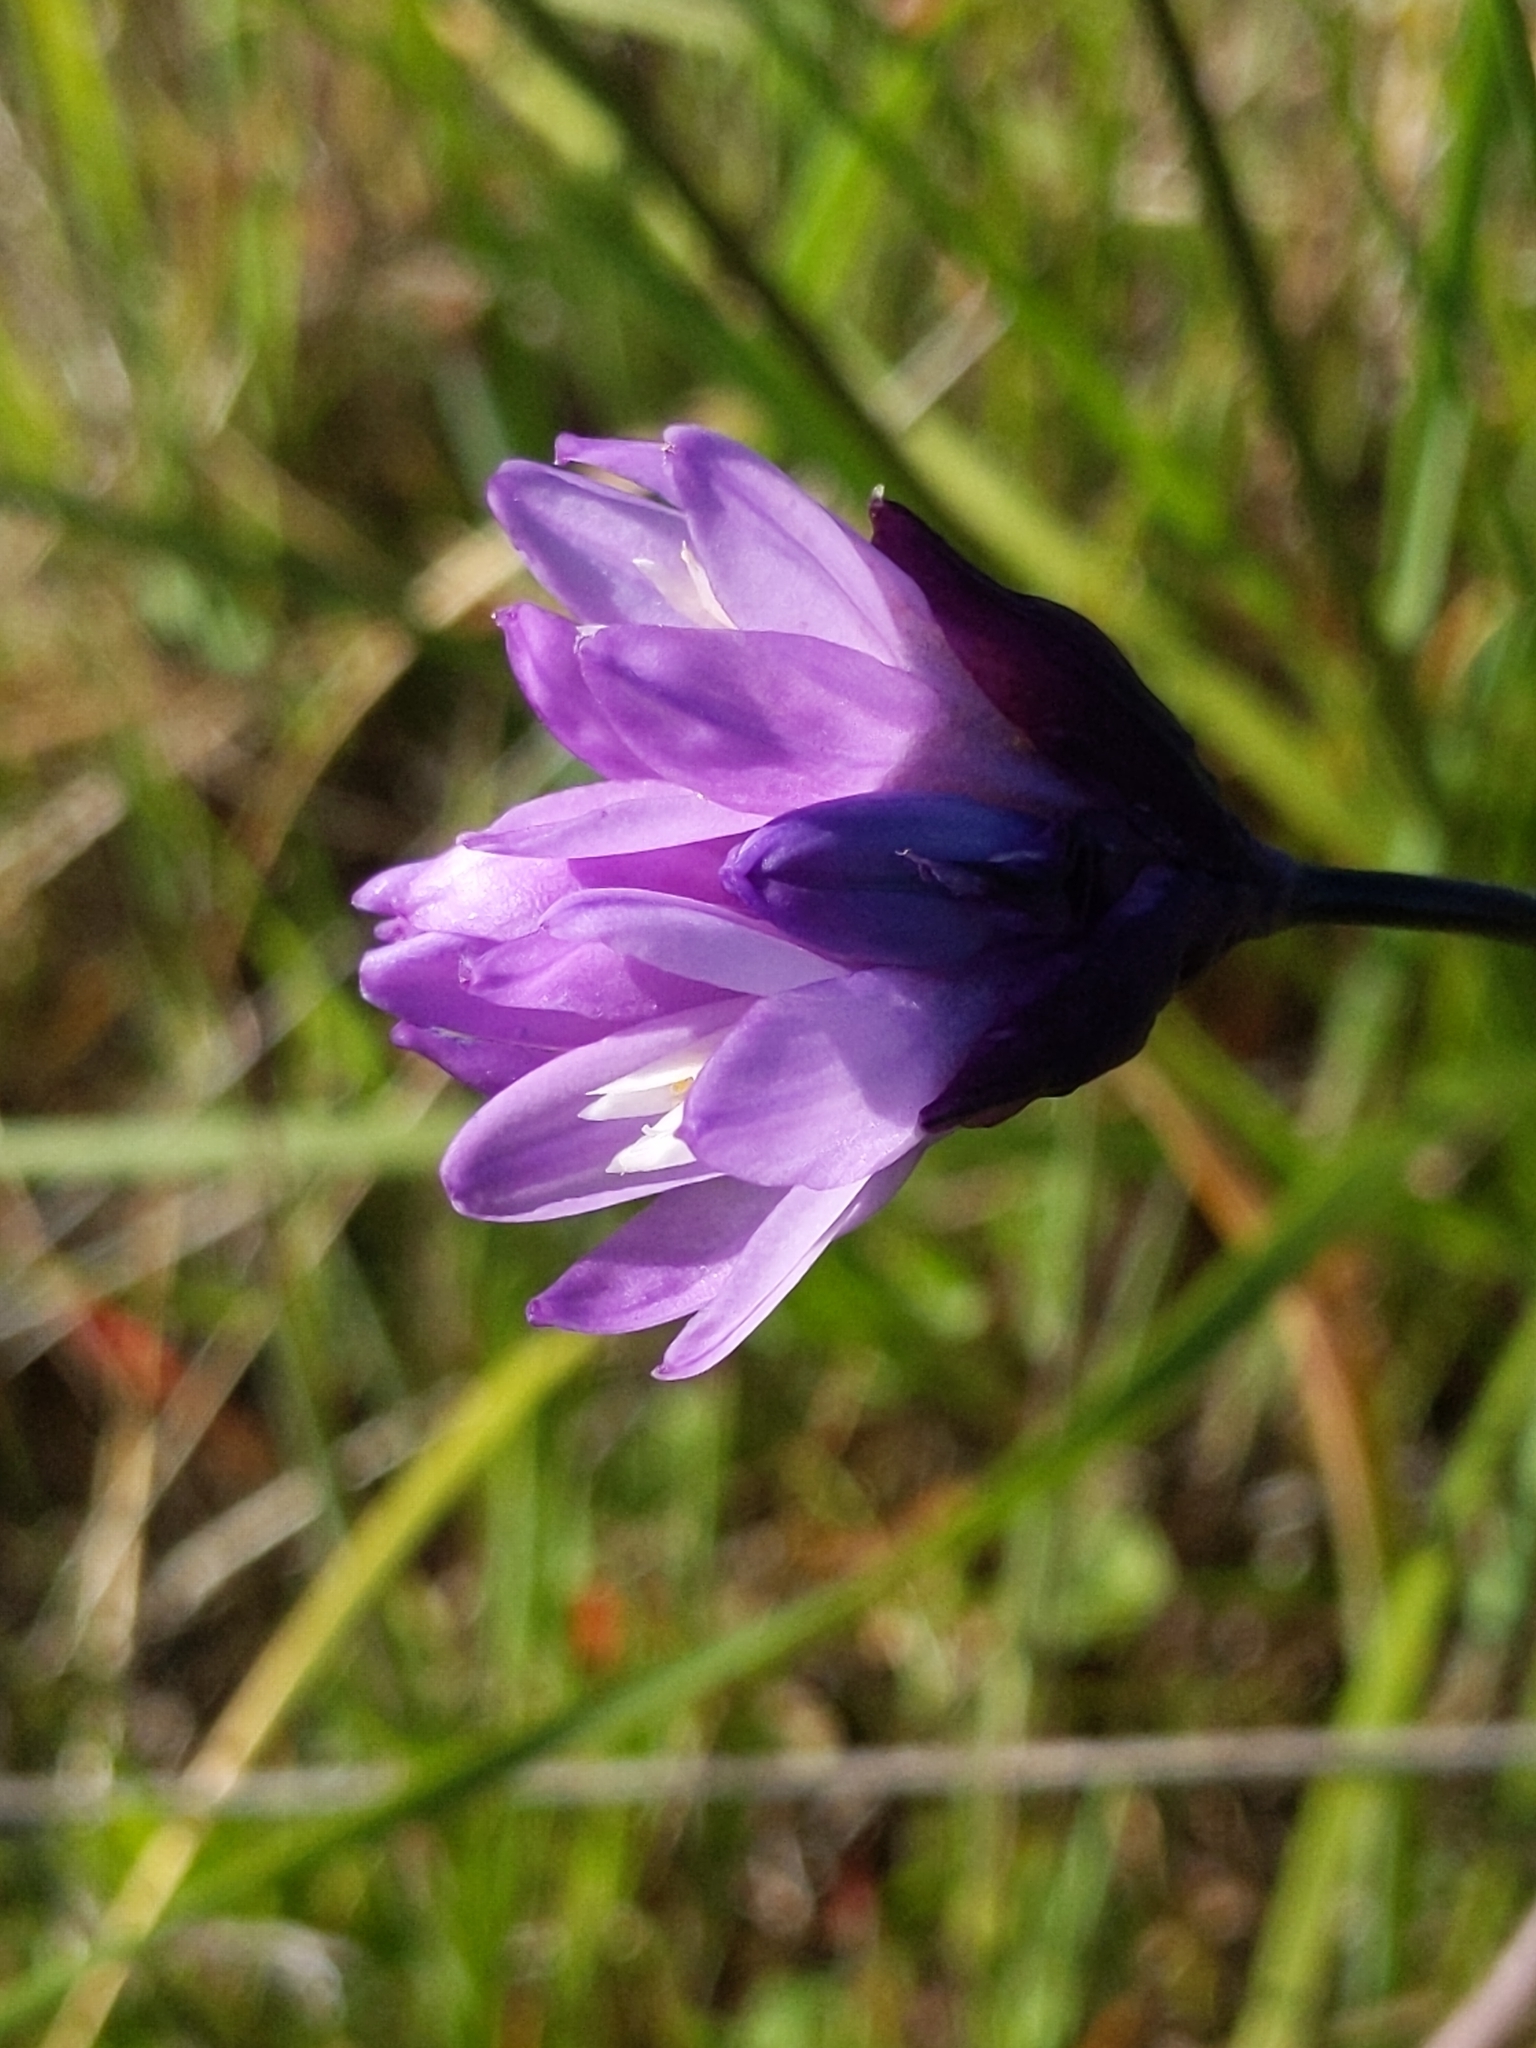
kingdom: Plantae
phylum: Tracheophyta
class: Liliopsida
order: Asparagales
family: Asparagaceae
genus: Dipterostemon
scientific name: Dipterostemon capitatus
